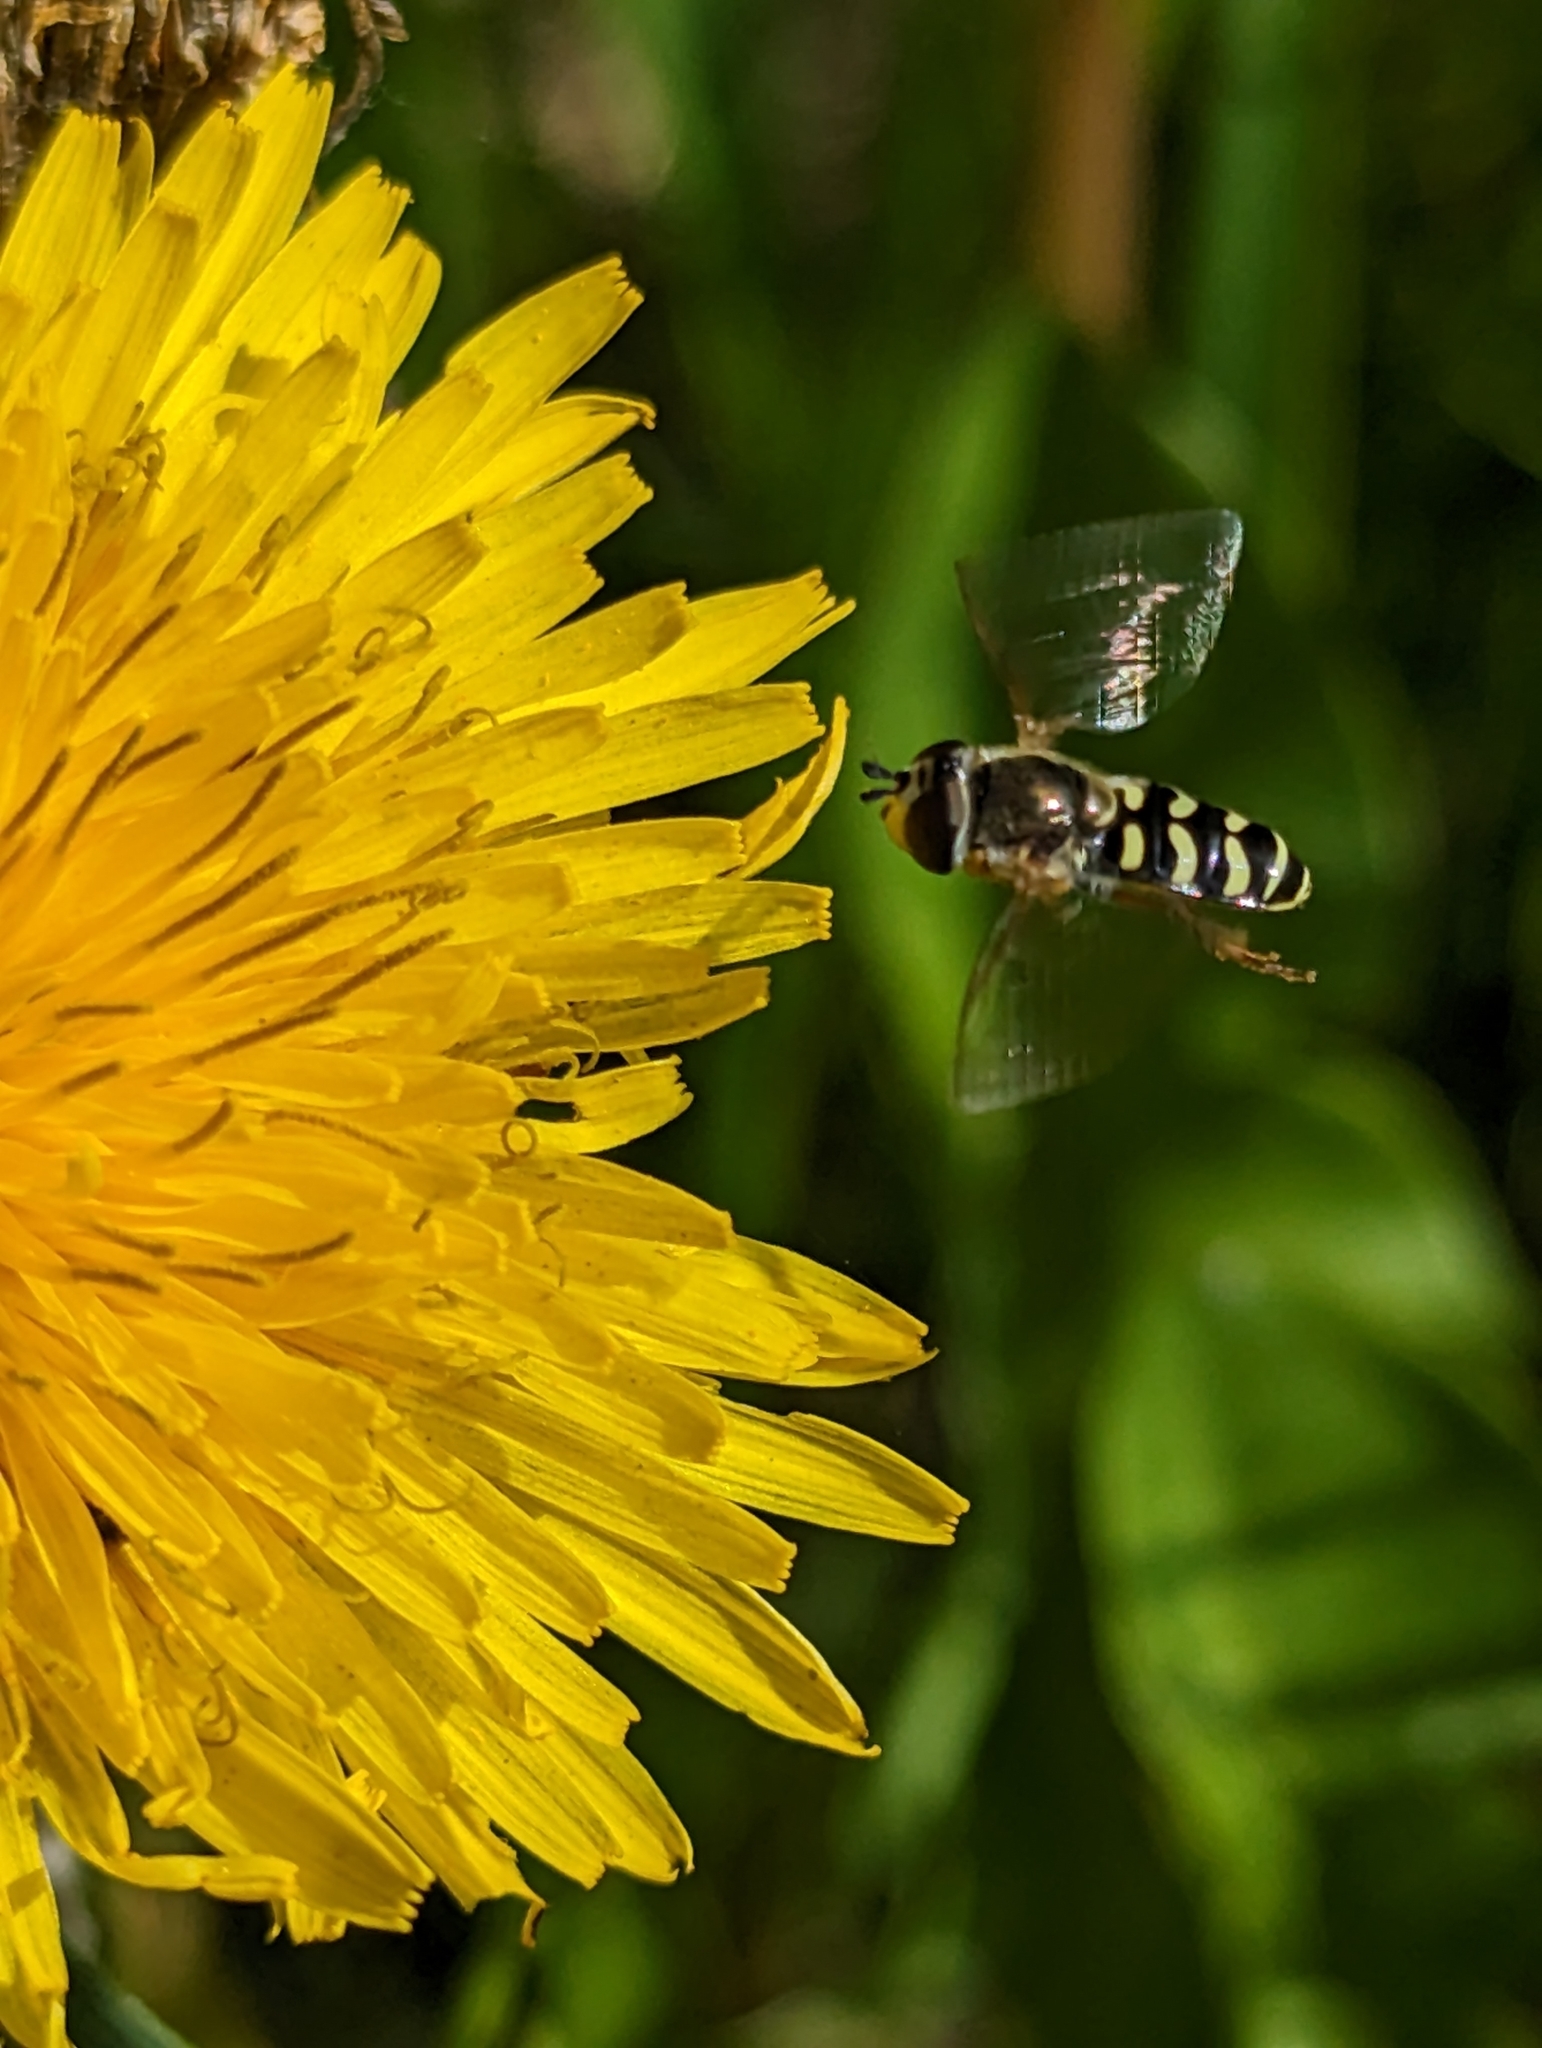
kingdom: Animalia
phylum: Arthropoda
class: Insecta
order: Diptera
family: Syrphidae
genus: Eupeodes
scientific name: Eupeodes volucris
